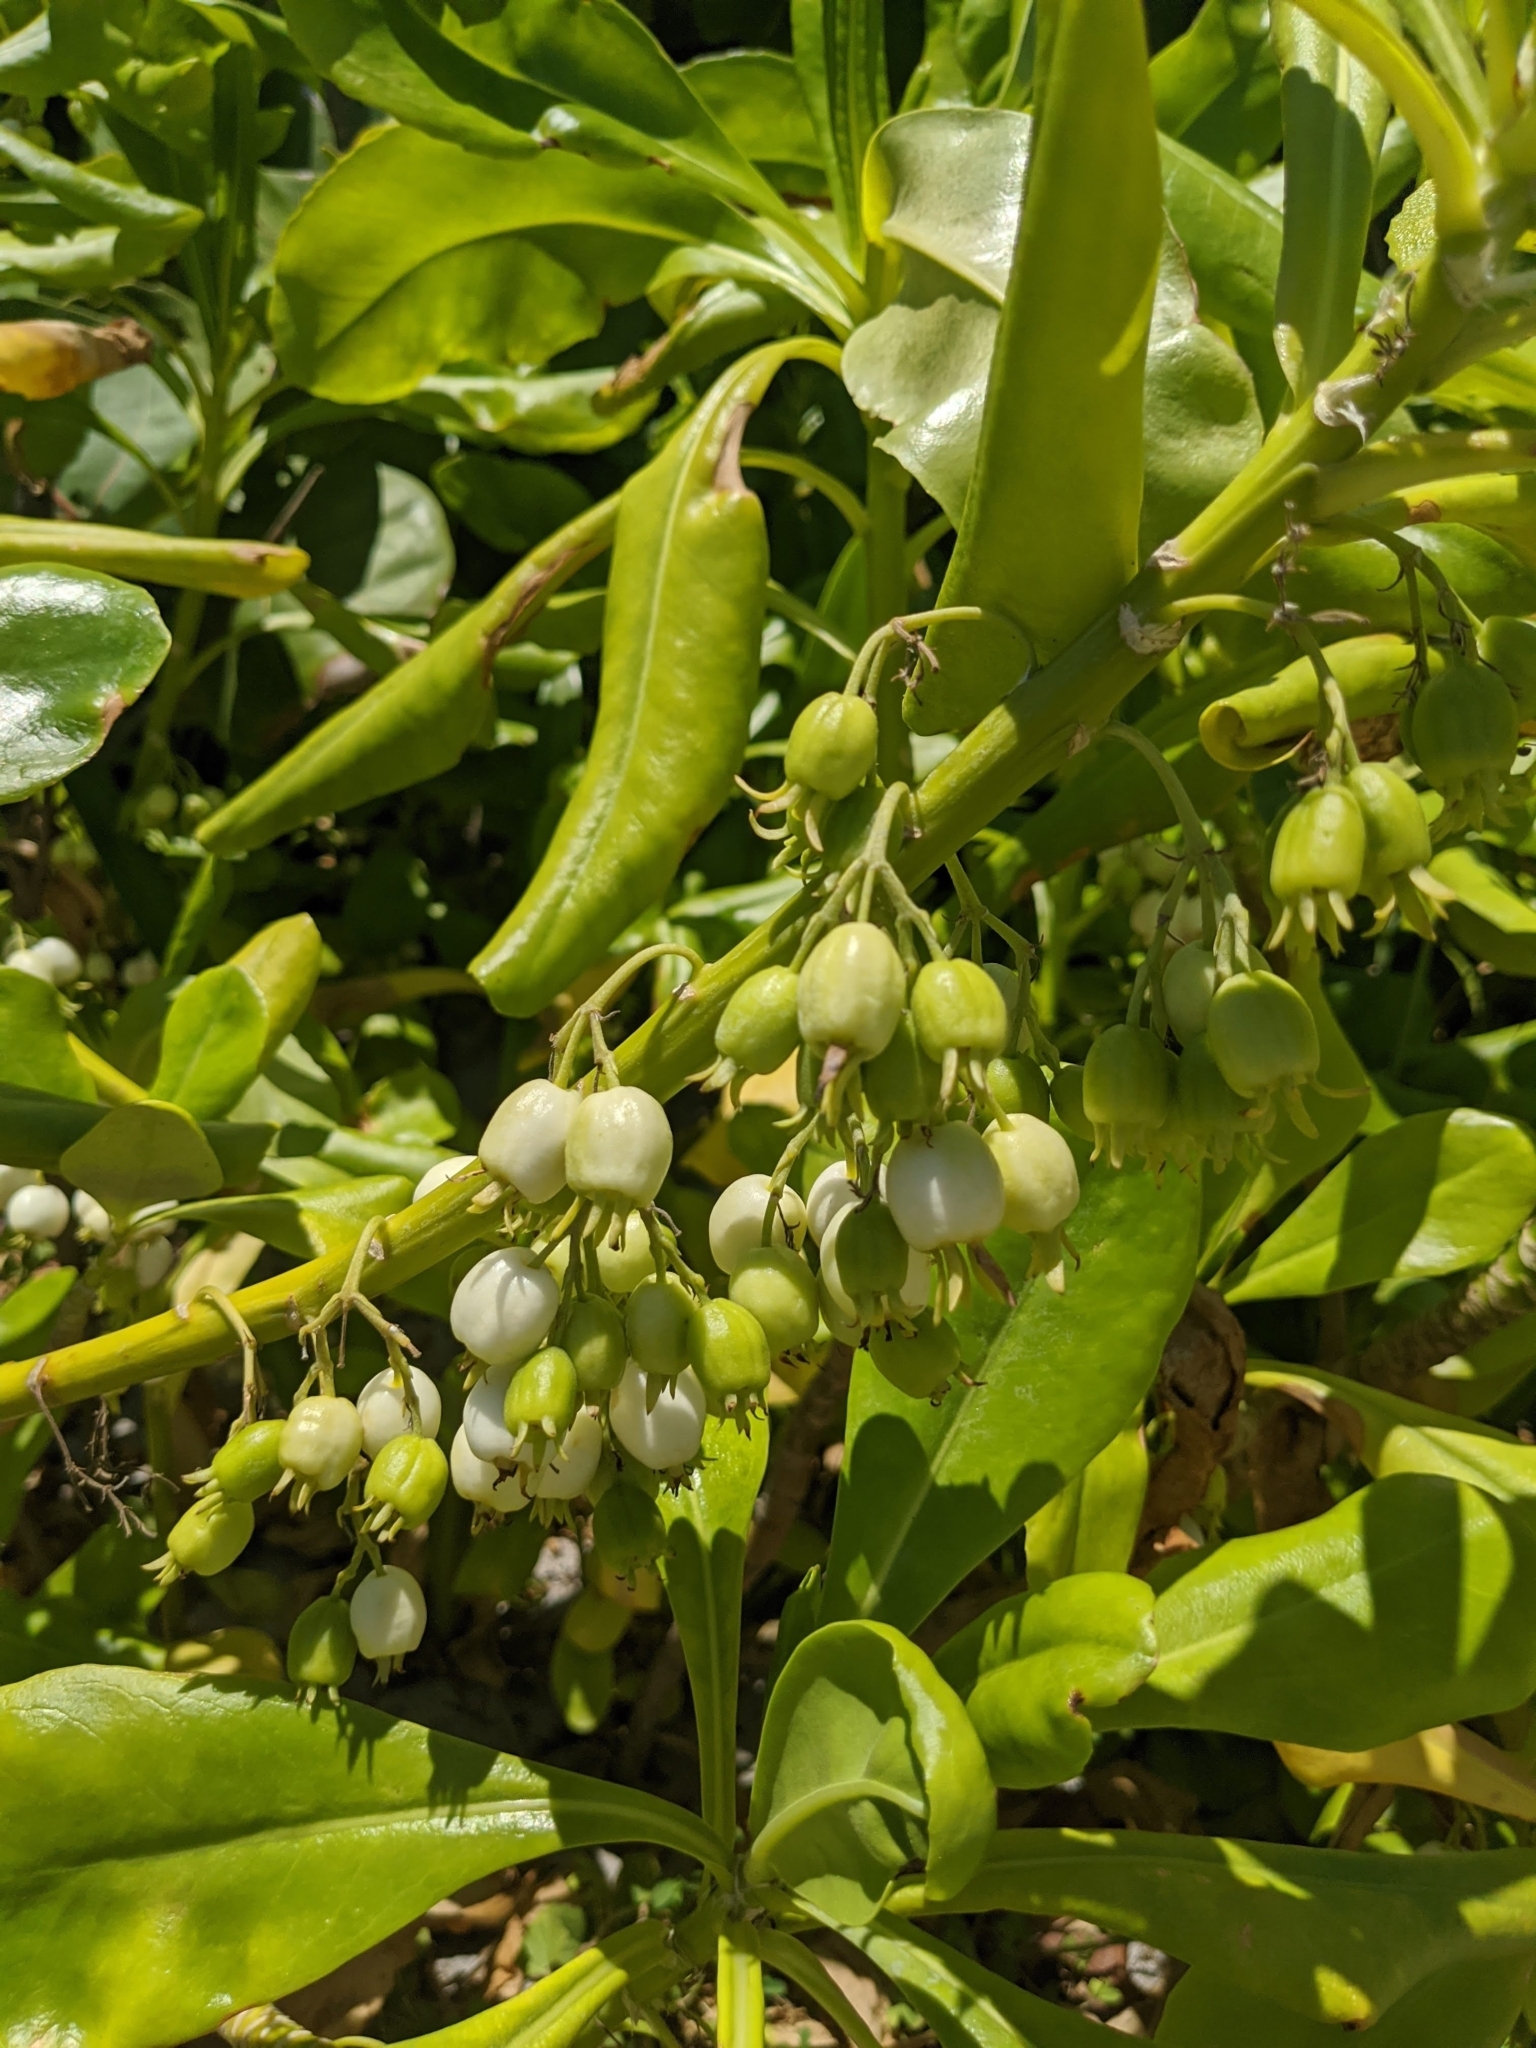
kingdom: Plantae
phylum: Tracheophyta
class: Magnoliopsida
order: Asterales
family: Goodeniaceae
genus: Scaevola
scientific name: Scaevola taccada
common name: Sea lettucetree
